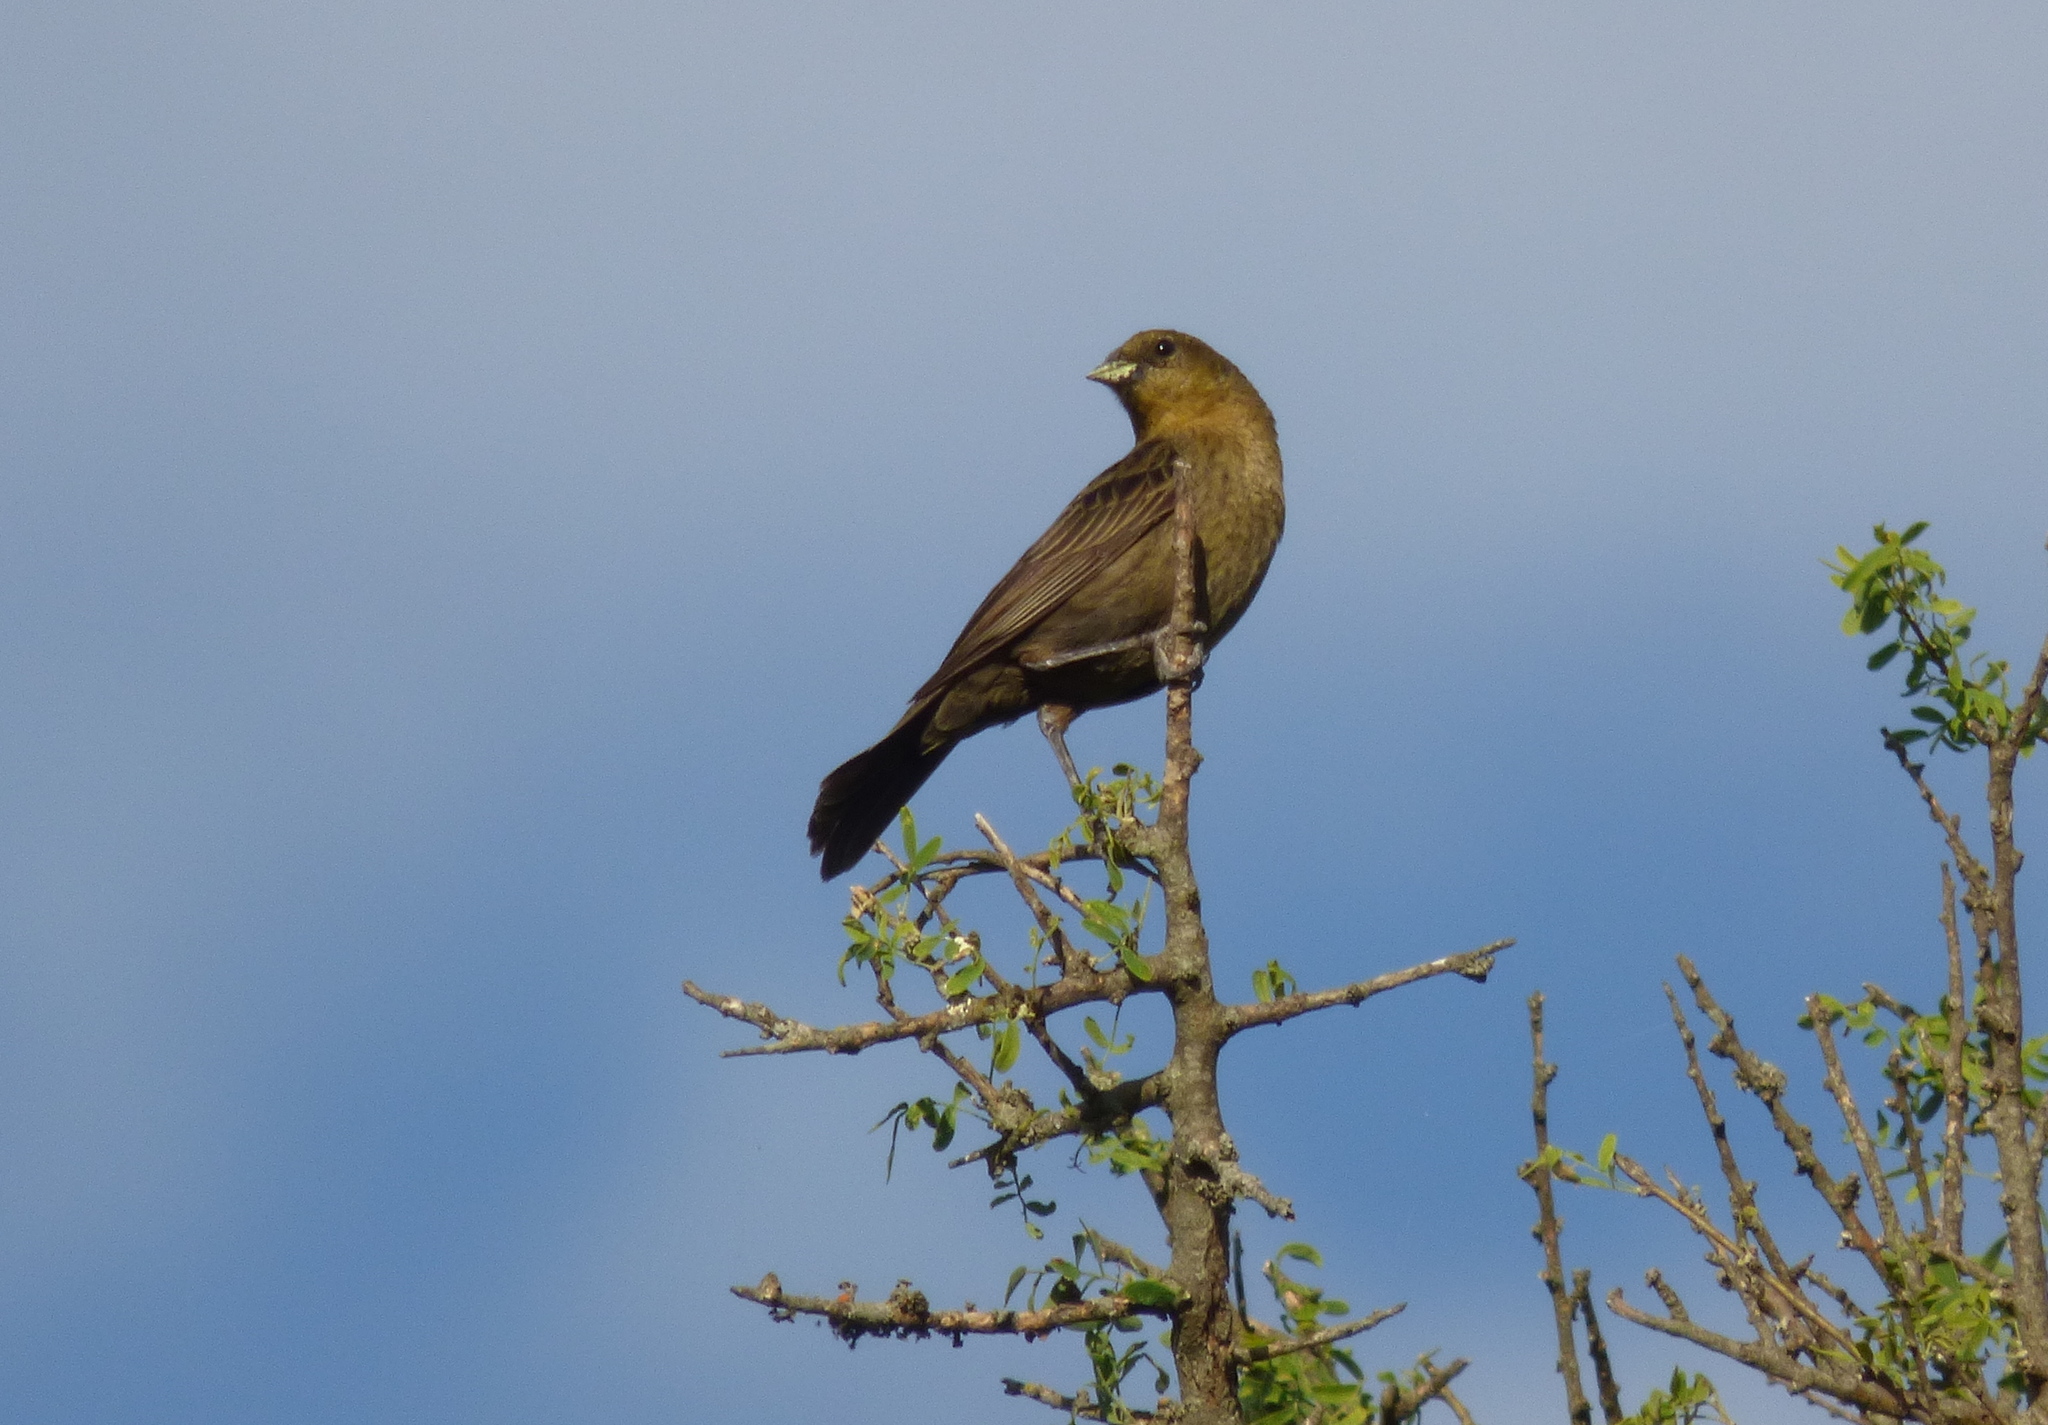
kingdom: Animalia
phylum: Chordata
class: Aves
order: Passeriformes
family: Icteridae
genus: Chrysomus
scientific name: Chrysomus ruficapillus
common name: Chestnut-capped blackbird
